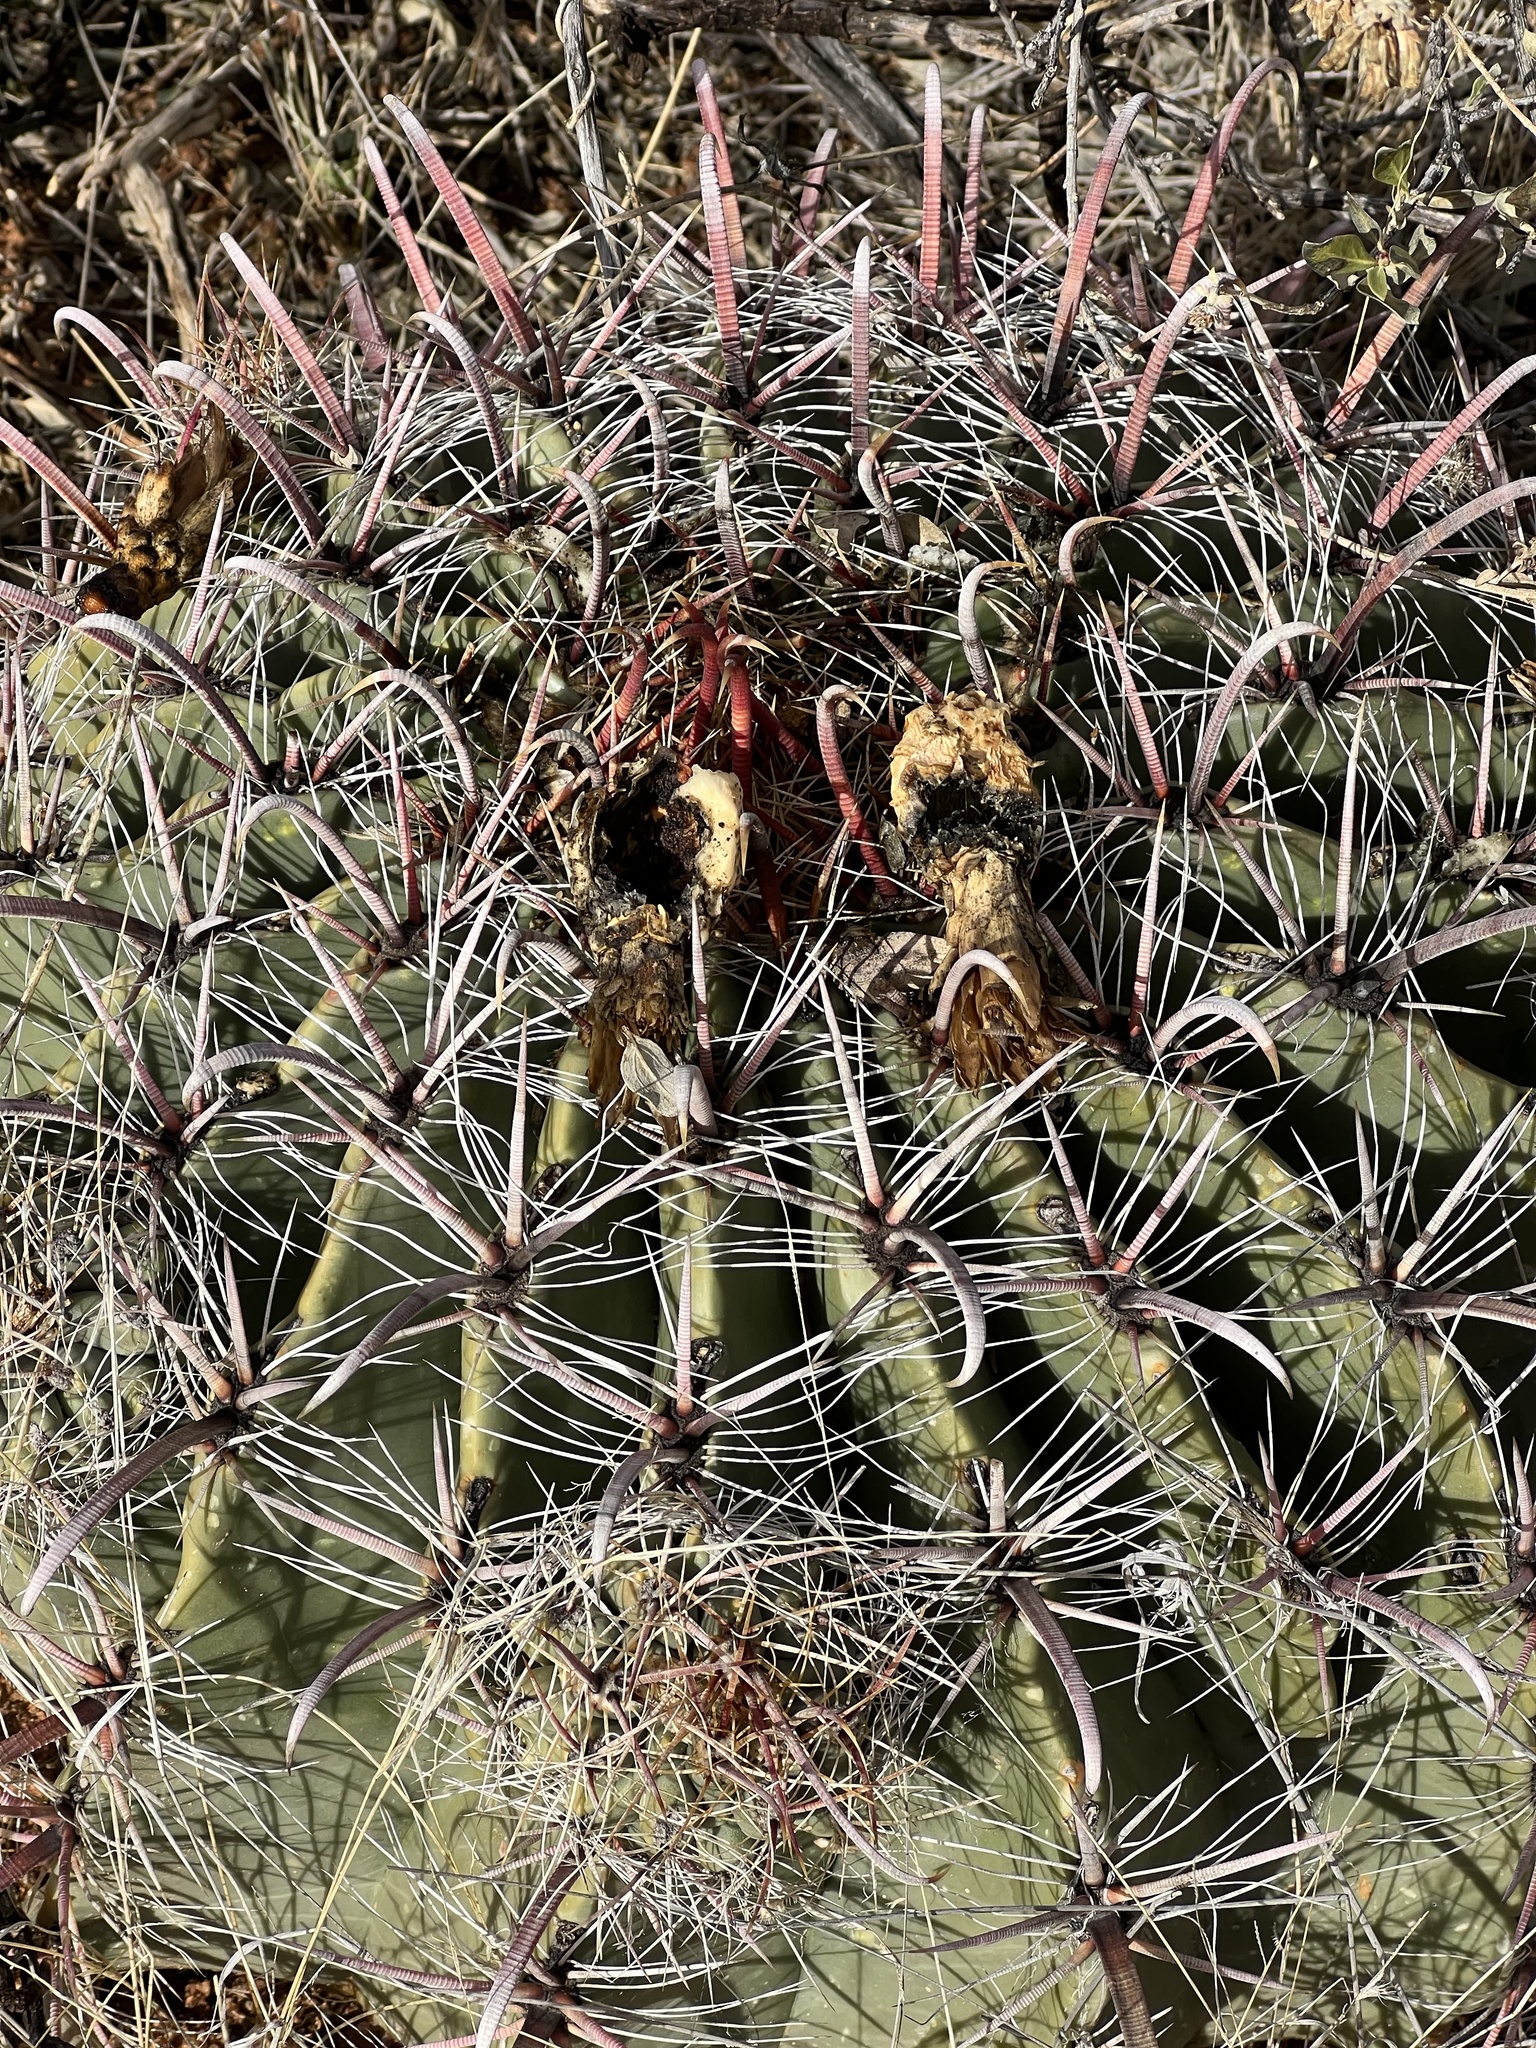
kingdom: Plantae
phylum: Tracheophyta
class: Magnoliopsida
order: Caryophyllales
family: Cactaceae
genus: Ferocactus
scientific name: Ferocactus wislizeni
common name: Candy barrel cactus
